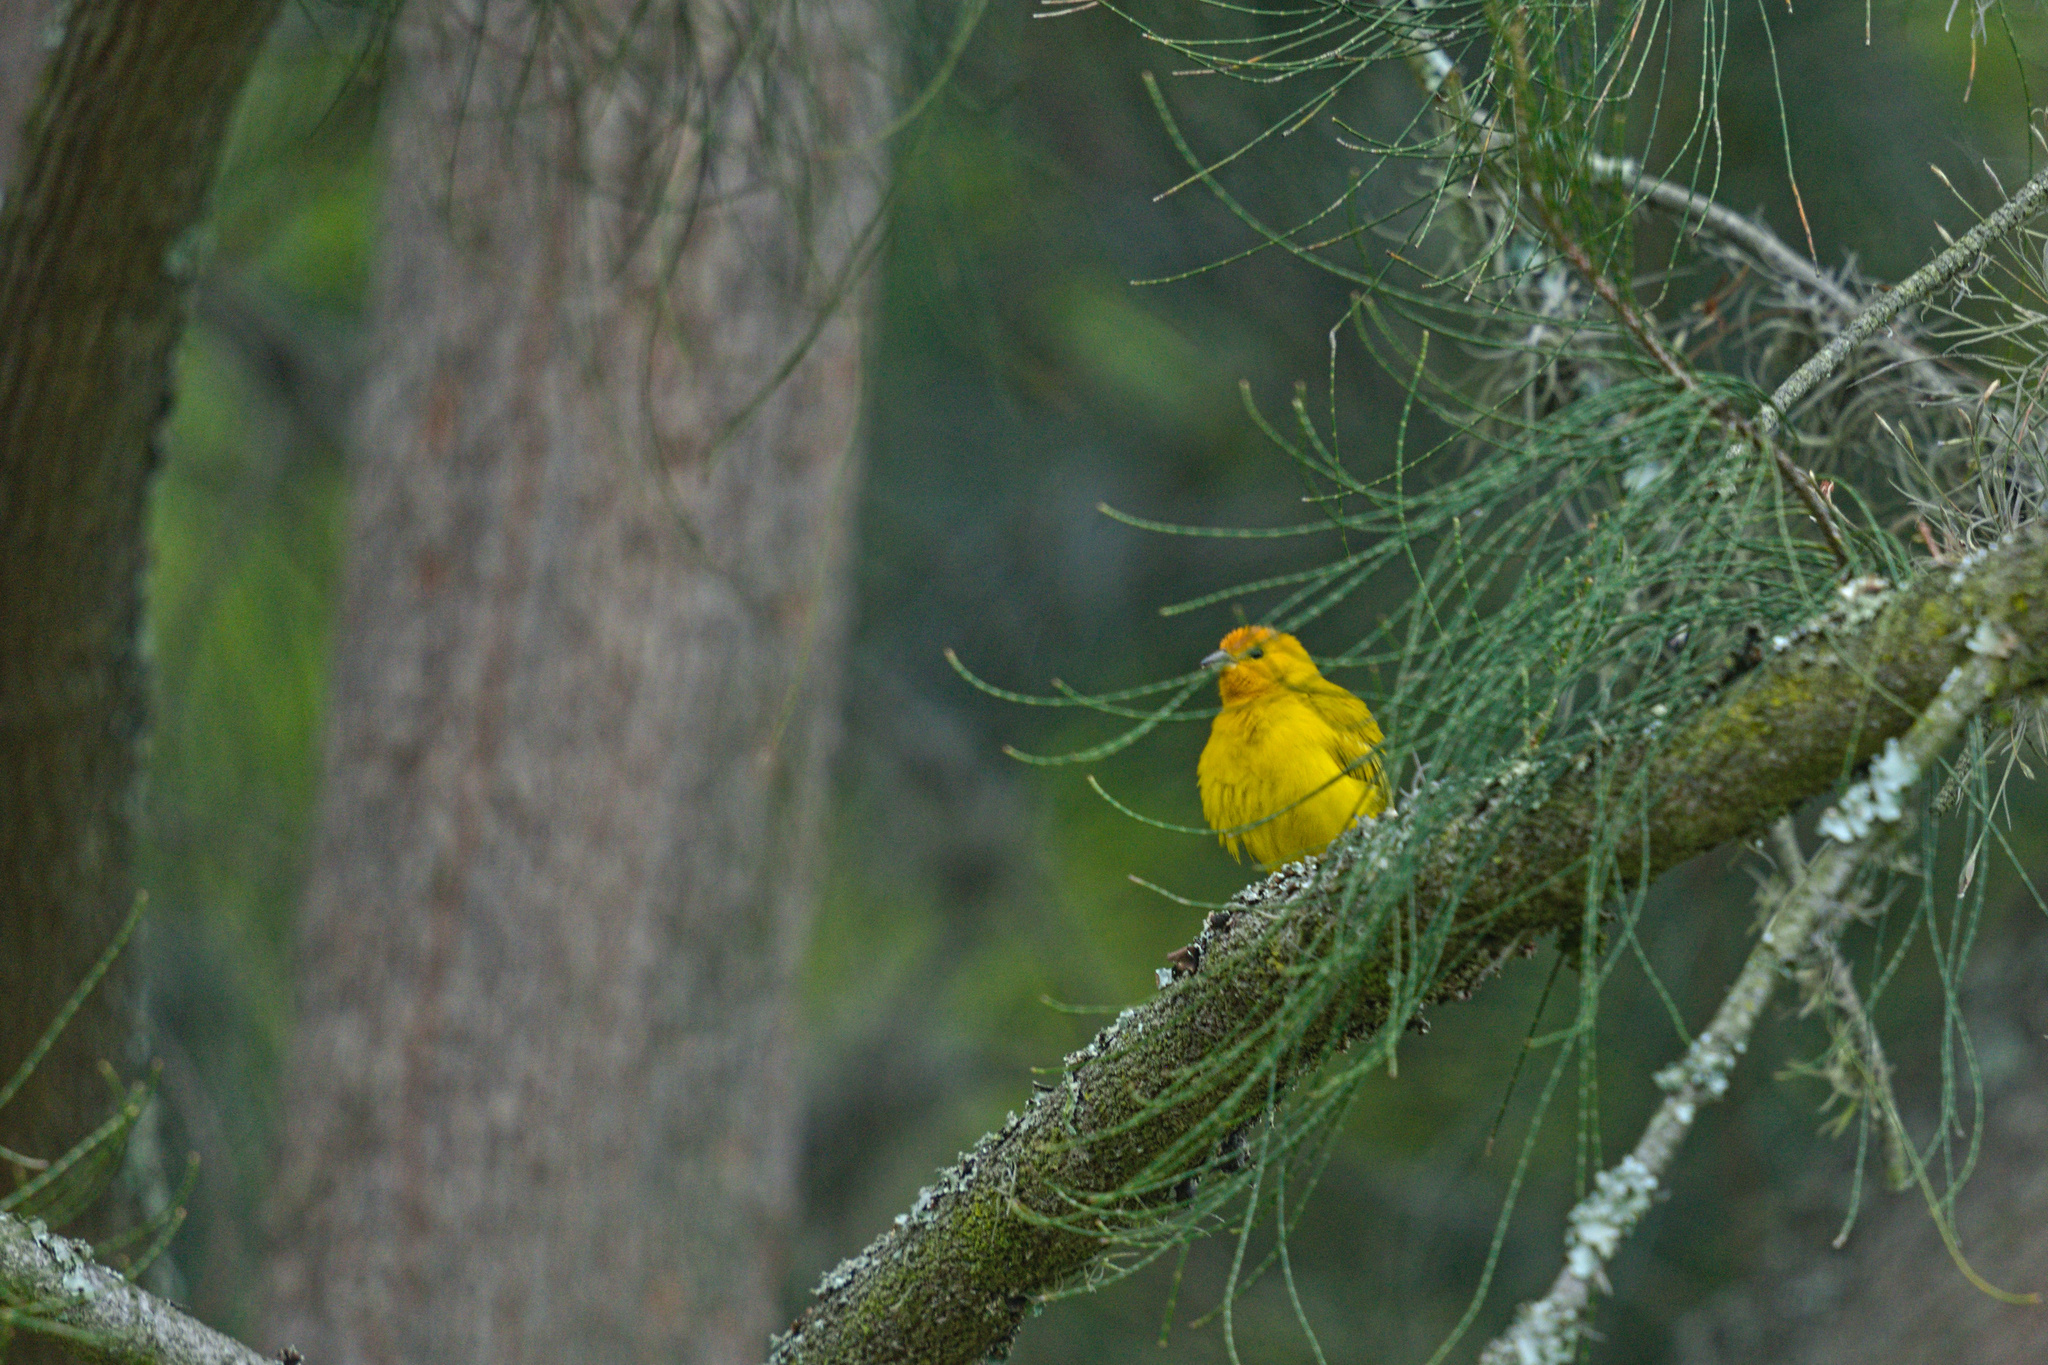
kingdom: Animalia
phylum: Chordata
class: Aves
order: Passeriformes
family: Thraupidae
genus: Sicalis
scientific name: Sicalis flaveola
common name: Saffron finch
